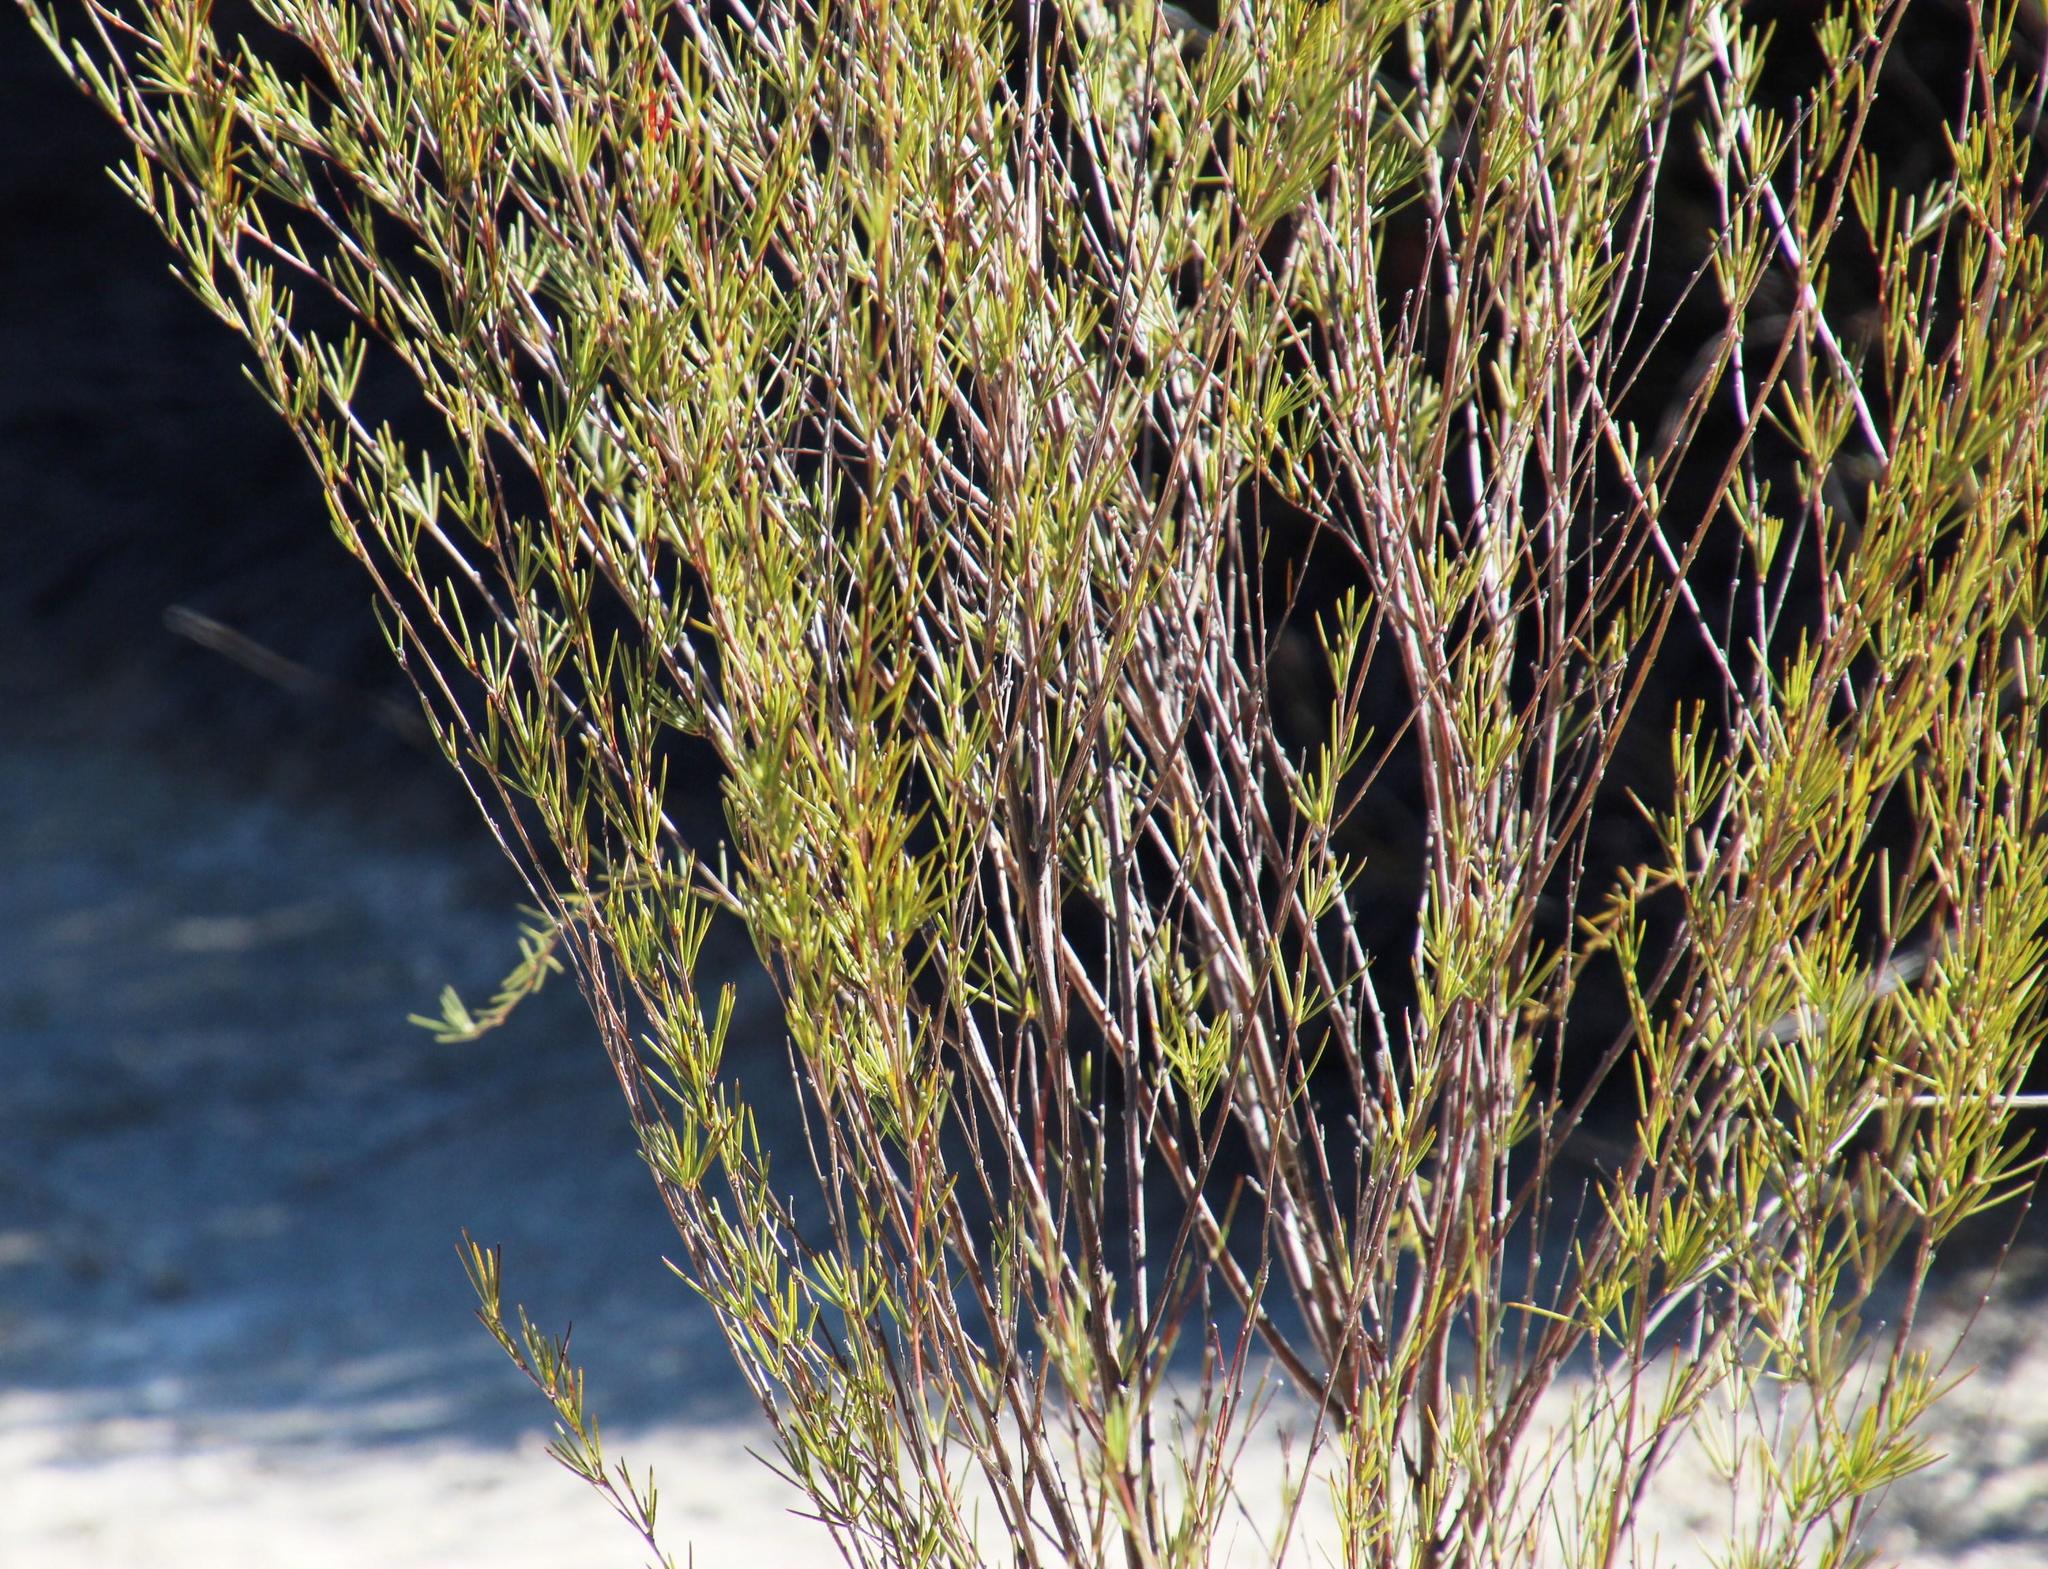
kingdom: Plantae
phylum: Tracheophyta
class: Magnoliopsida
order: Fabales
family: Fabaceae
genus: Aspalathus
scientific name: Aspalathus linearis
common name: Rooibos-tea
